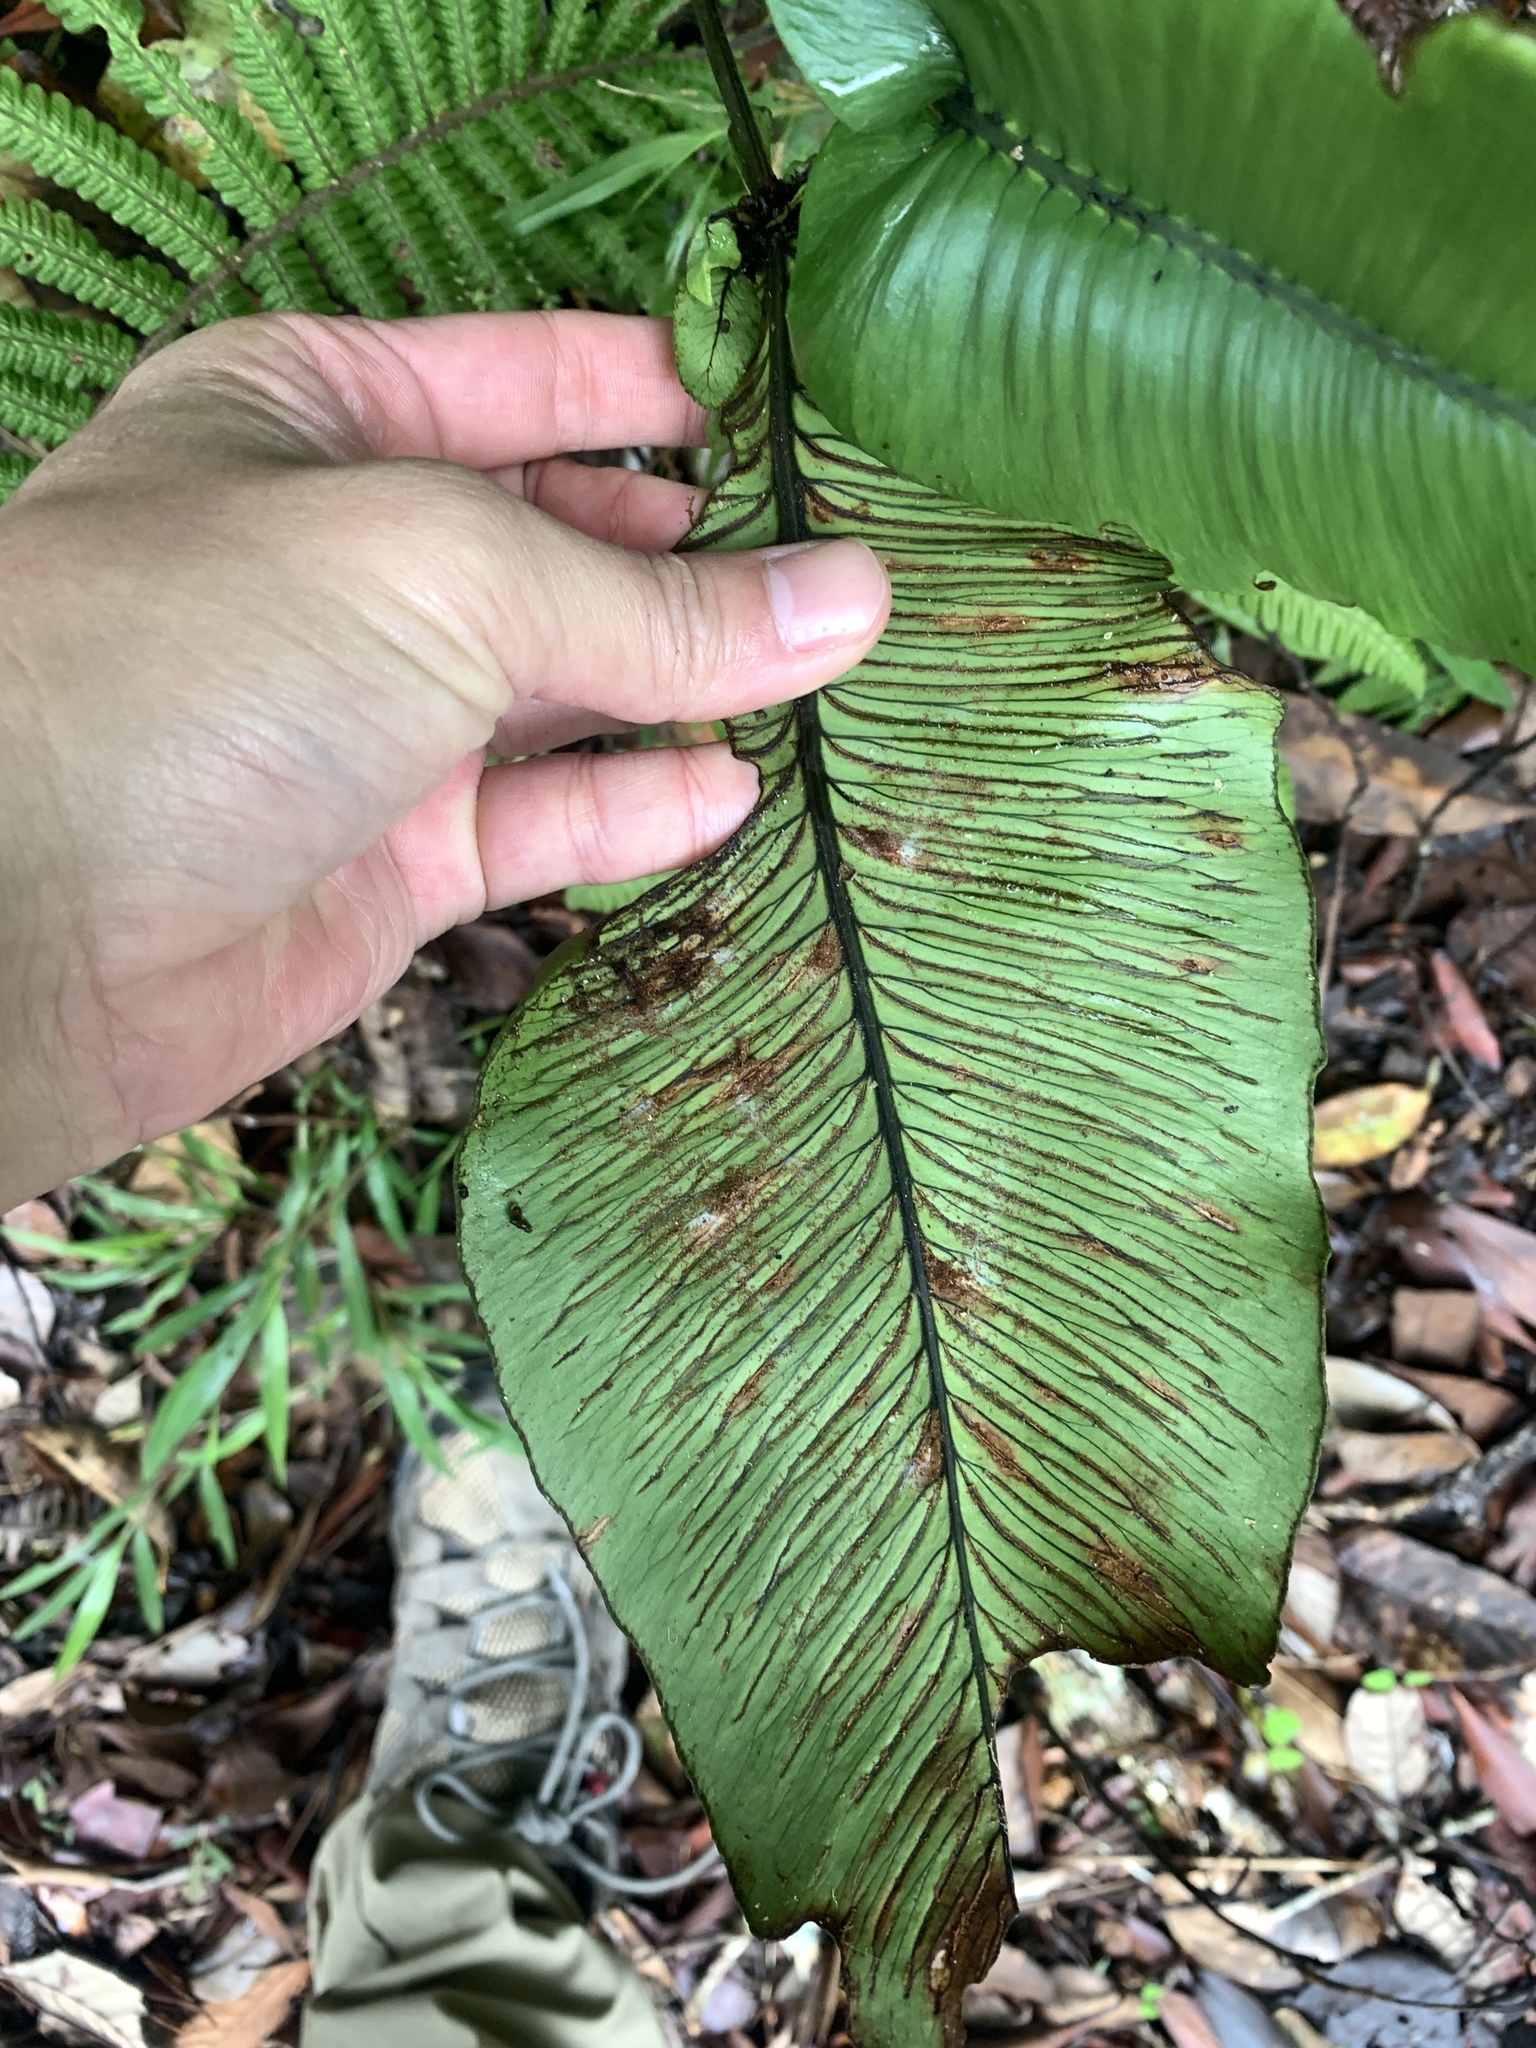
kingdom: Plantae
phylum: Tracheophyta
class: Polypodiopsida
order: Polypodiales
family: Athyriaceae
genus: Diplazium
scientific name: Diplazium cordifolium
